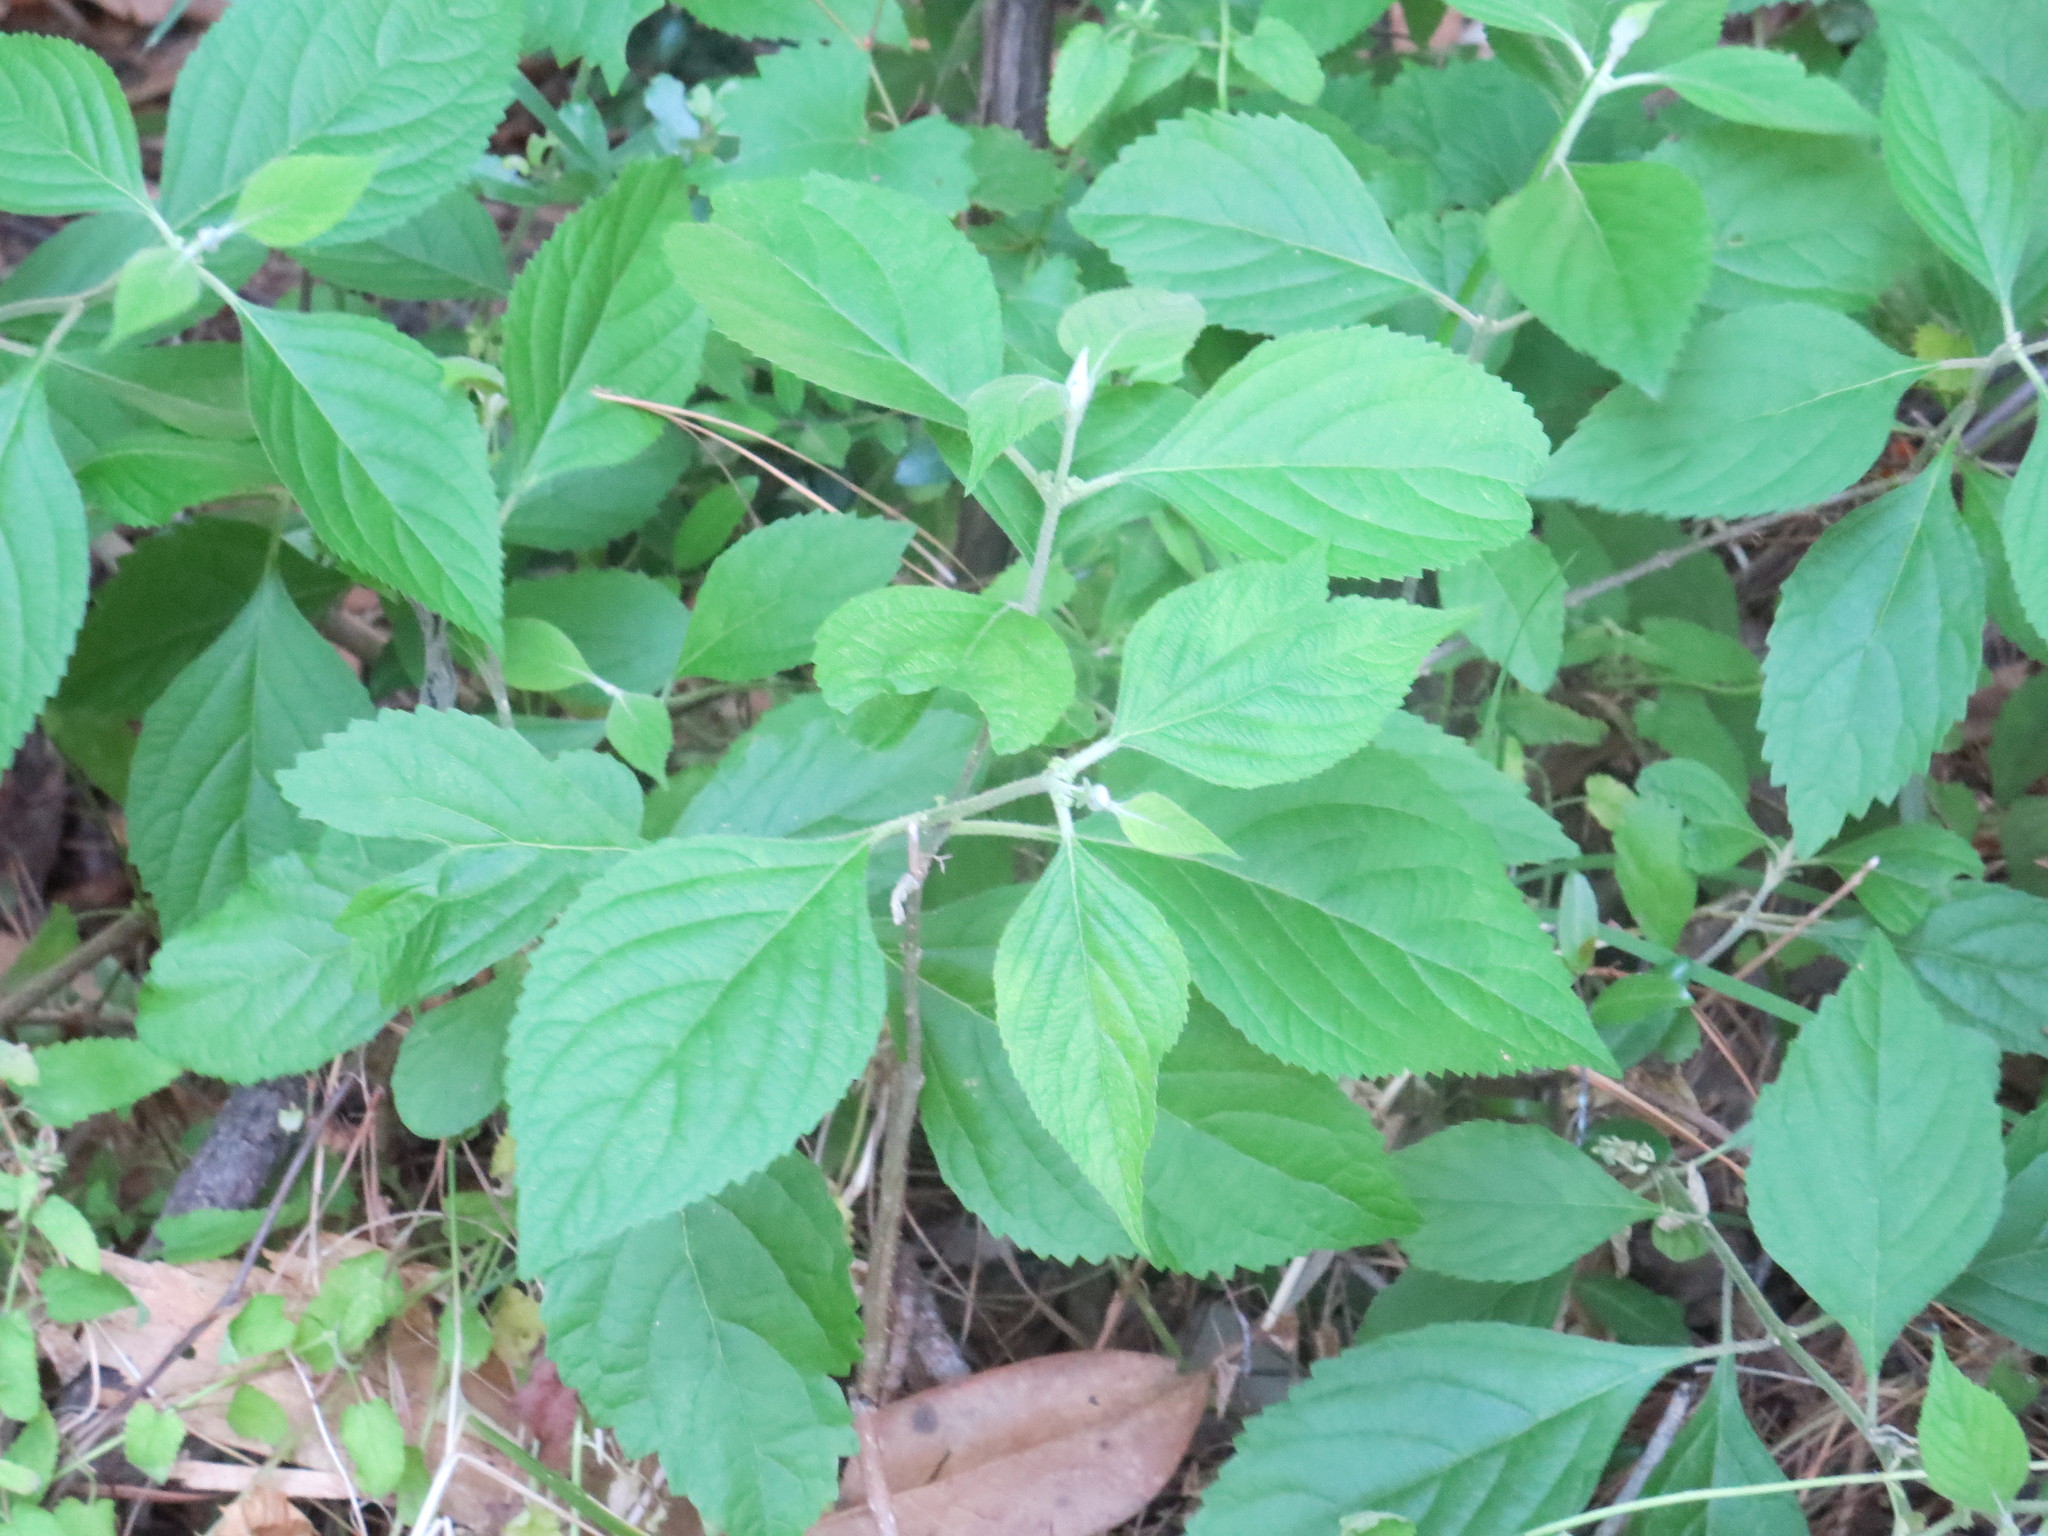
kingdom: Plantae
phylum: Tracheophyta
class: Magnoliopsida
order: Lamiales
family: Lamiaceae
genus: Callicarpa
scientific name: Callicarpa americana
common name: American beautyberry
